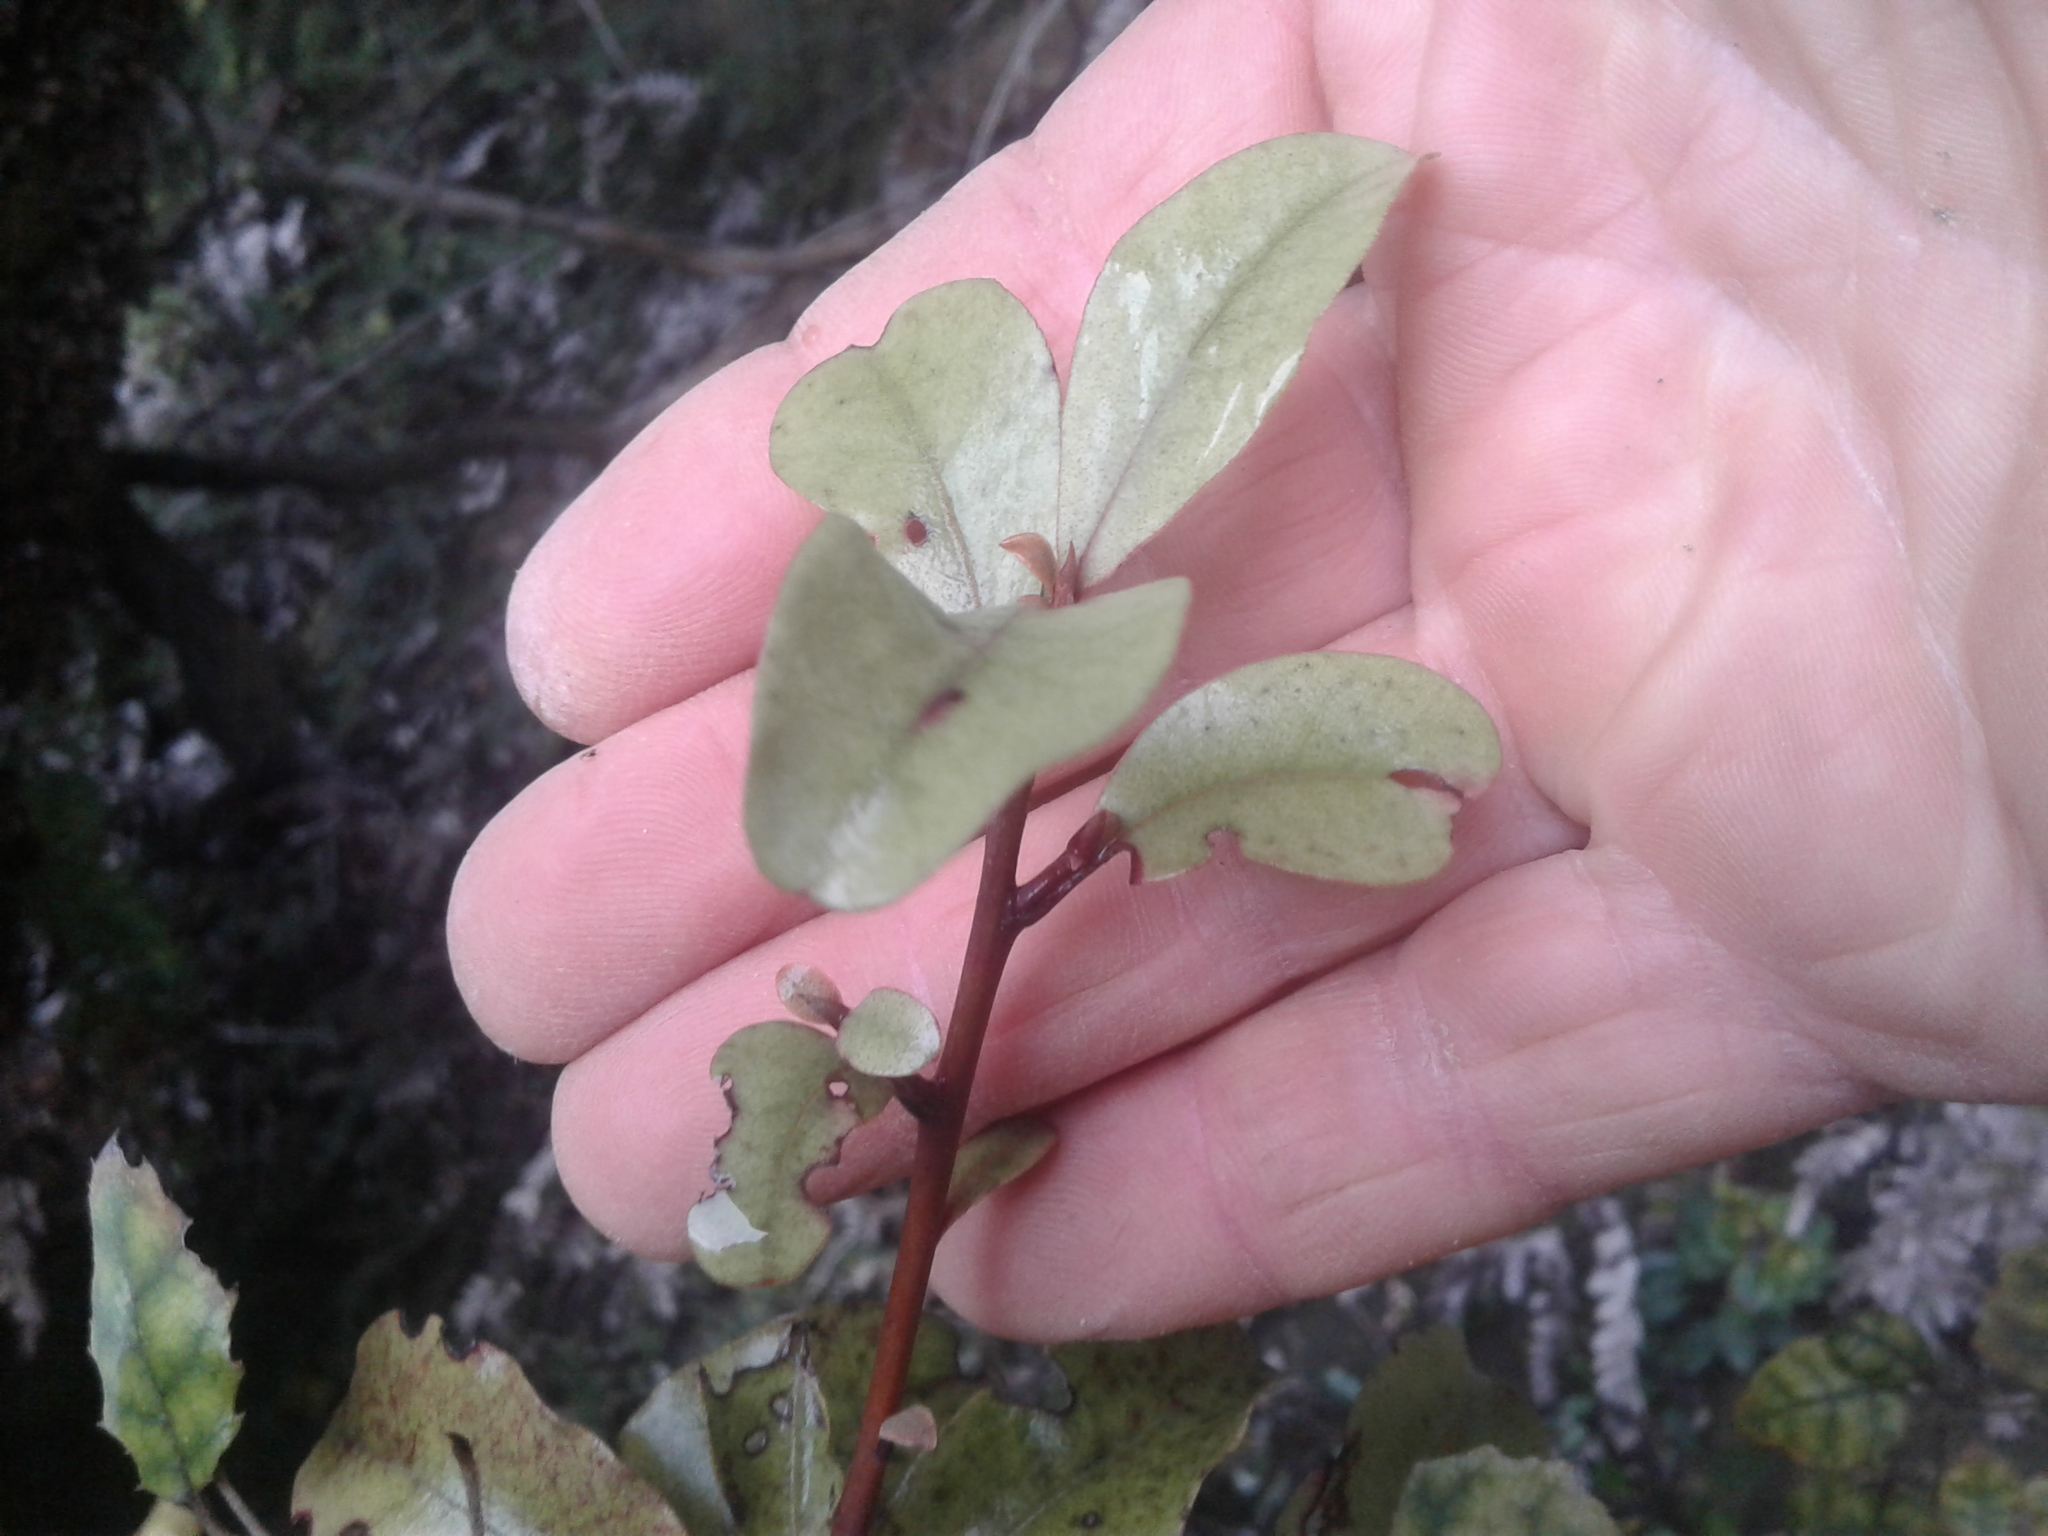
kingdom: Plantae
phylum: Tracheophyta
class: Magnoliopsida
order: Ericales
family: Primulaceae
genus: Myrsine
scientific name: Myrsine australis
